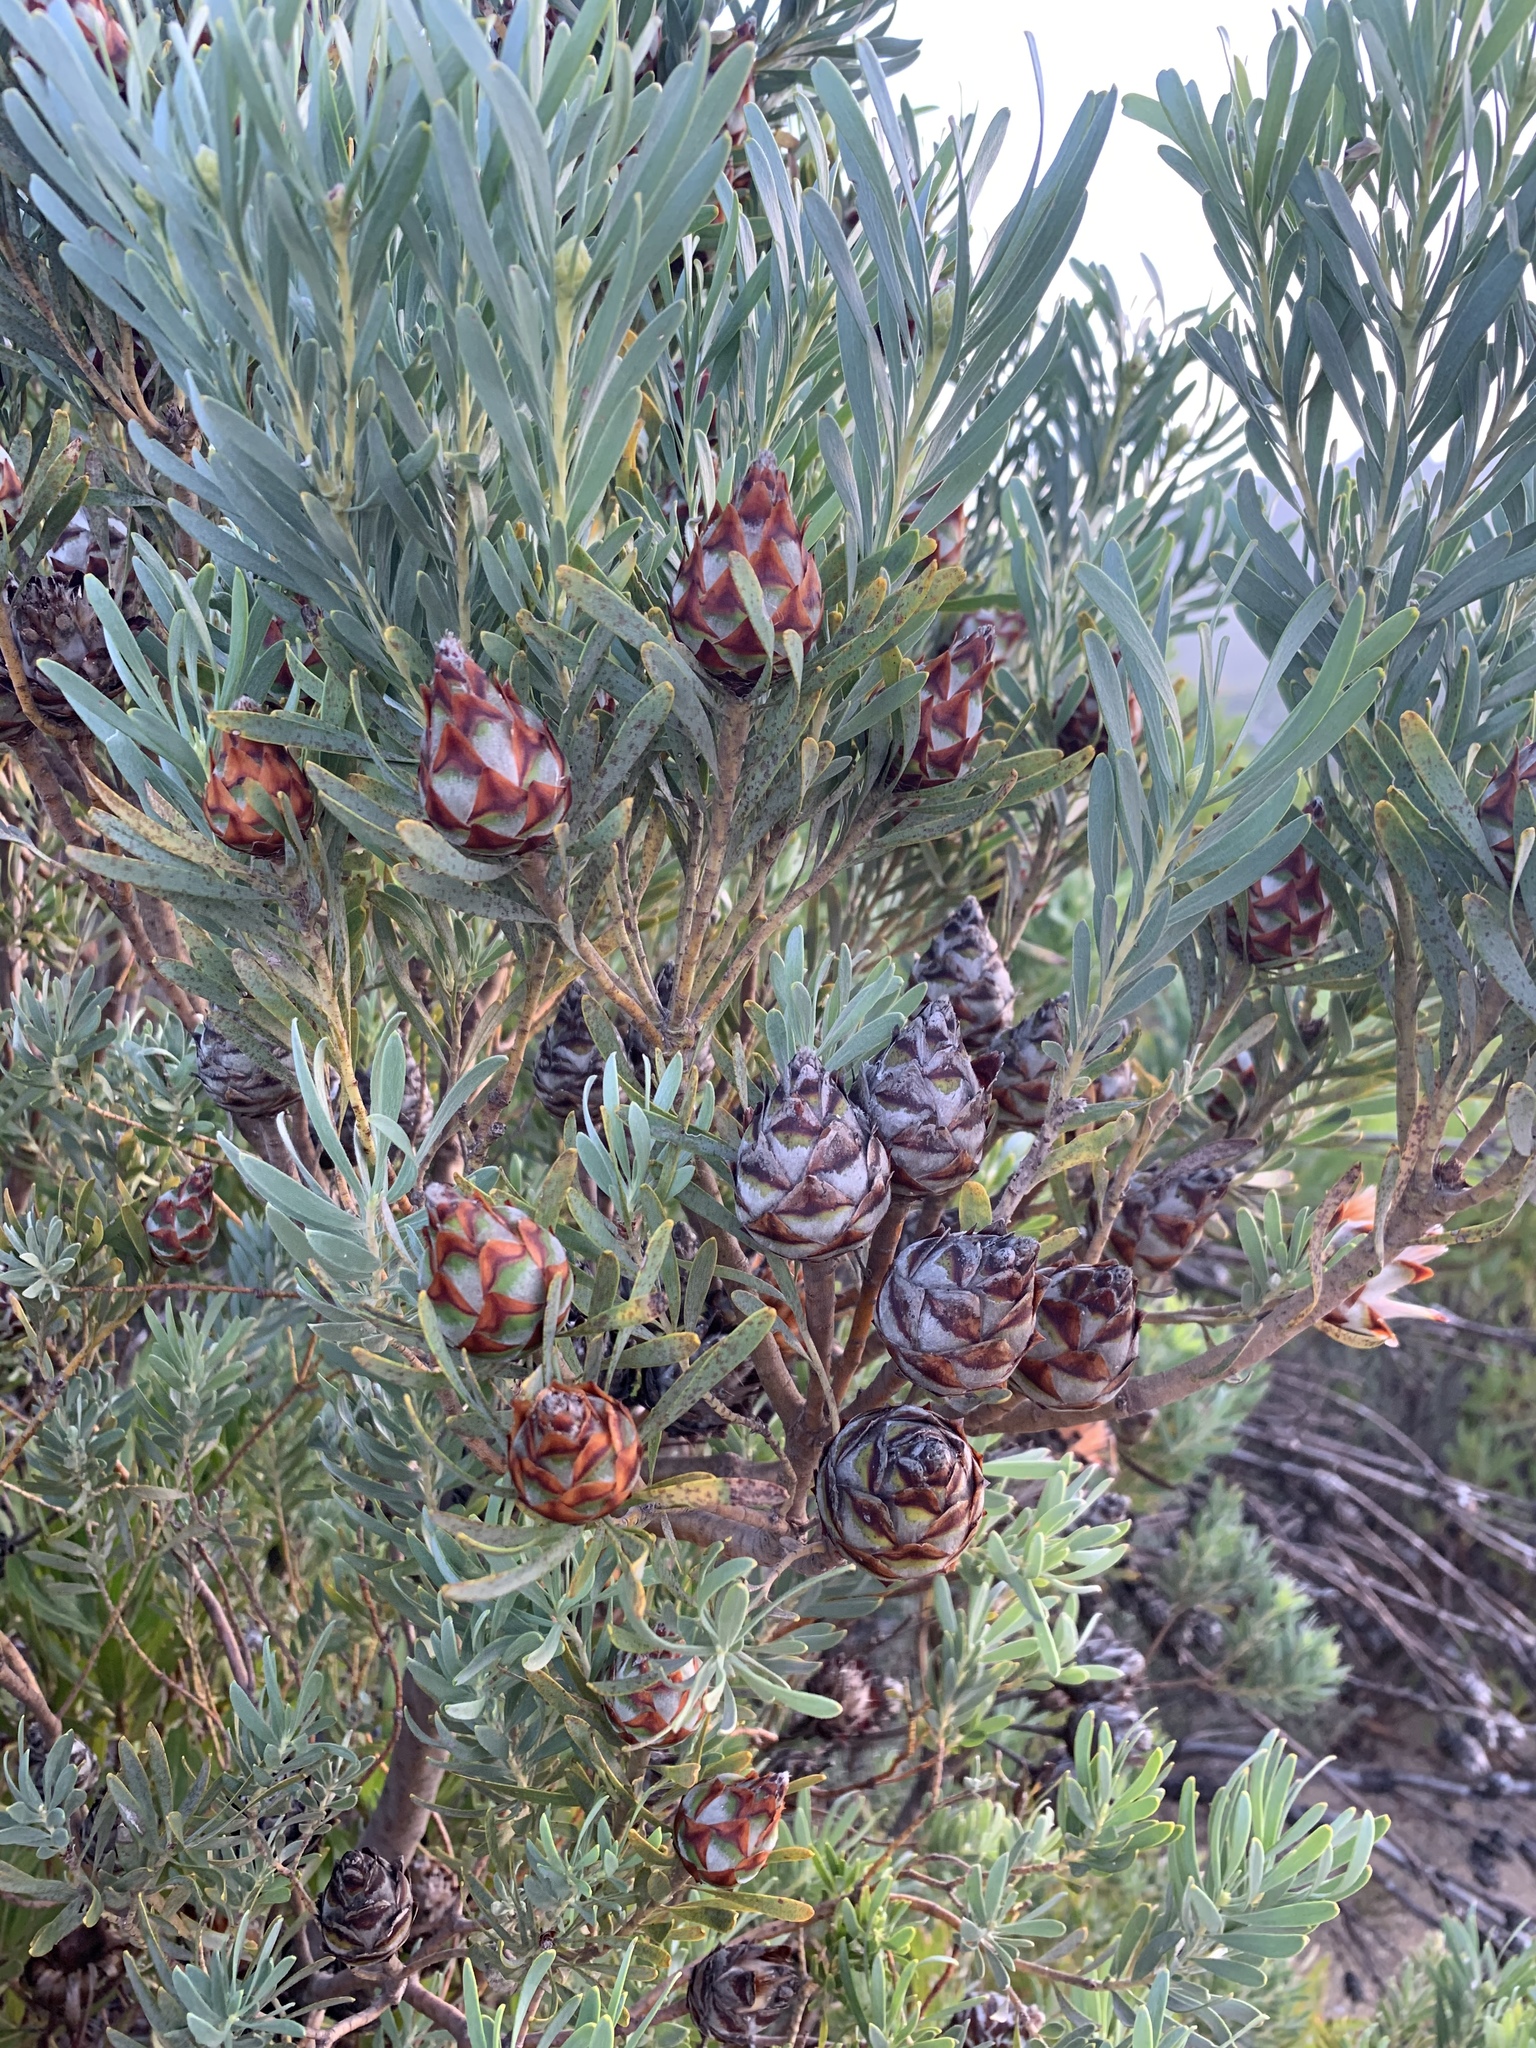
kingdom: Plantae
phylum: Tracheophyta
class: Magnoliopsida
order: Proteales
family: Proteaceae
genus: Leucadendron
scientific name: Leucadendron rubrum
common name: Spinning top
